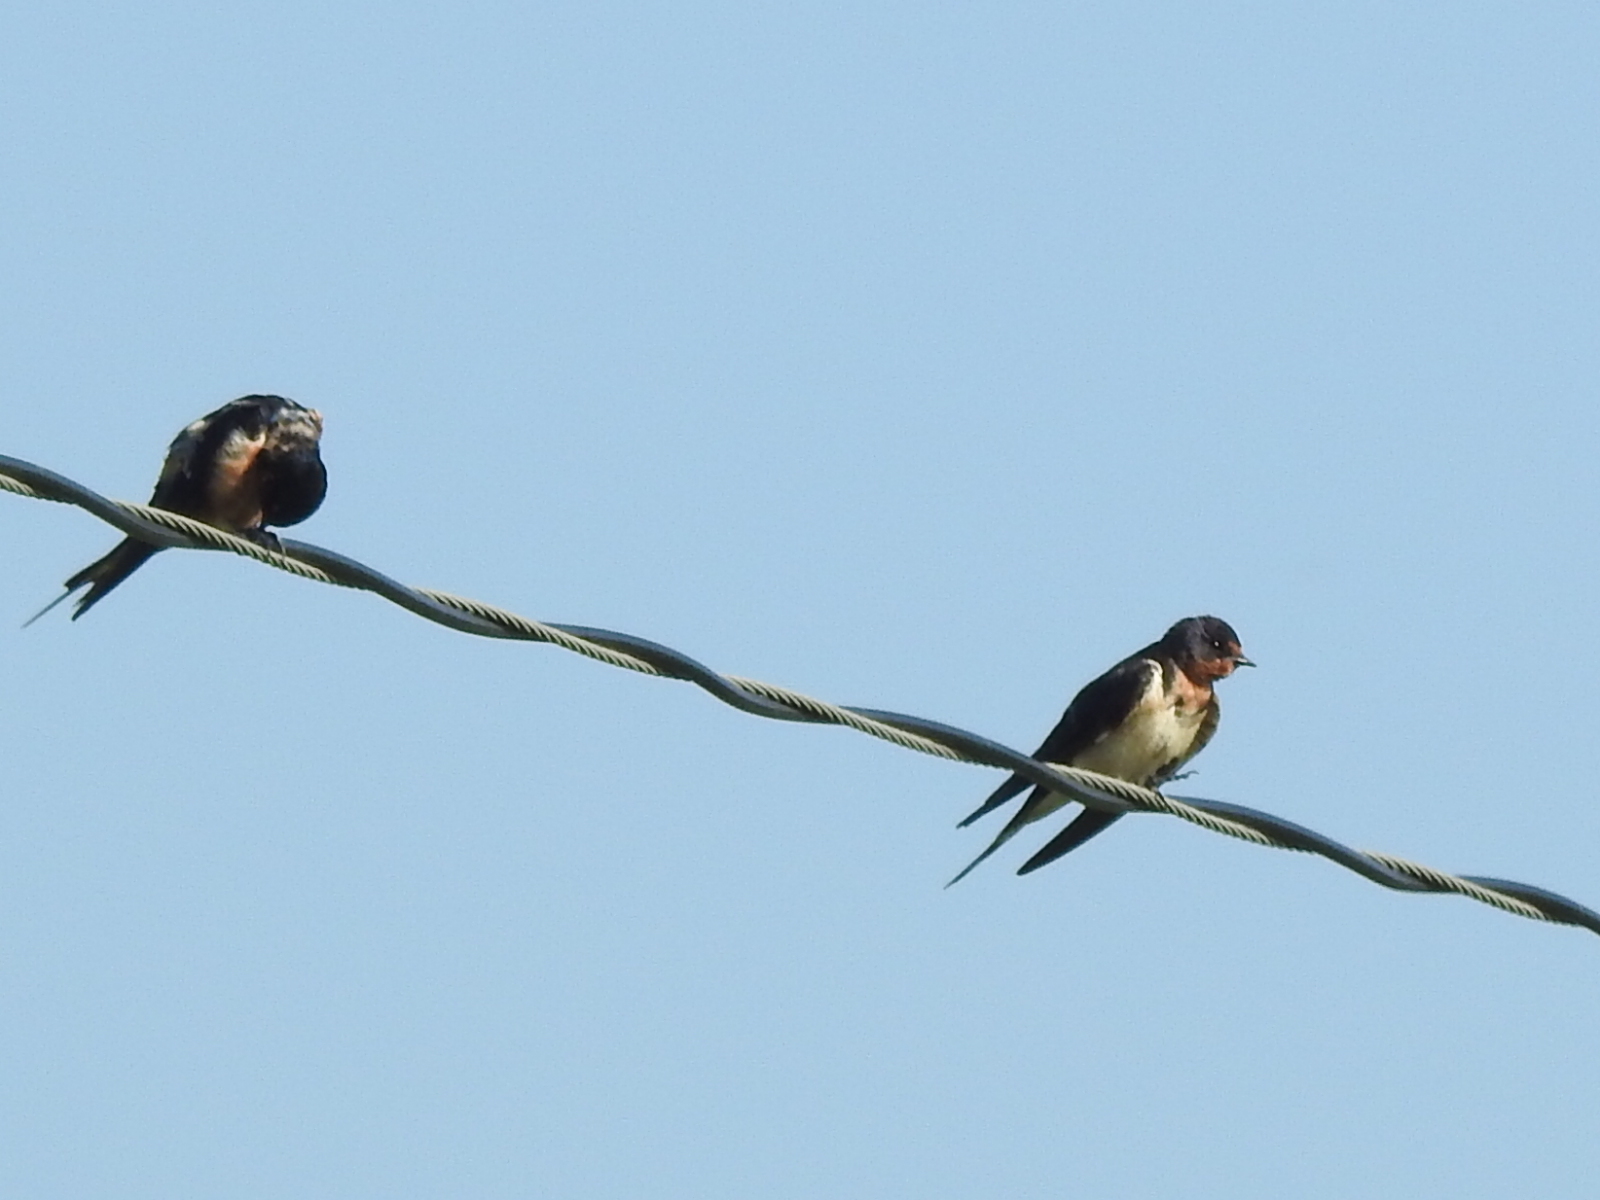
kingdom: Animalia
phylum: Chordata
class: Aves
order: Passeriformes
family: Hirundinidae
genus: Hirundo
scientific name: Hirundo rustica
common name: Barn swallow
